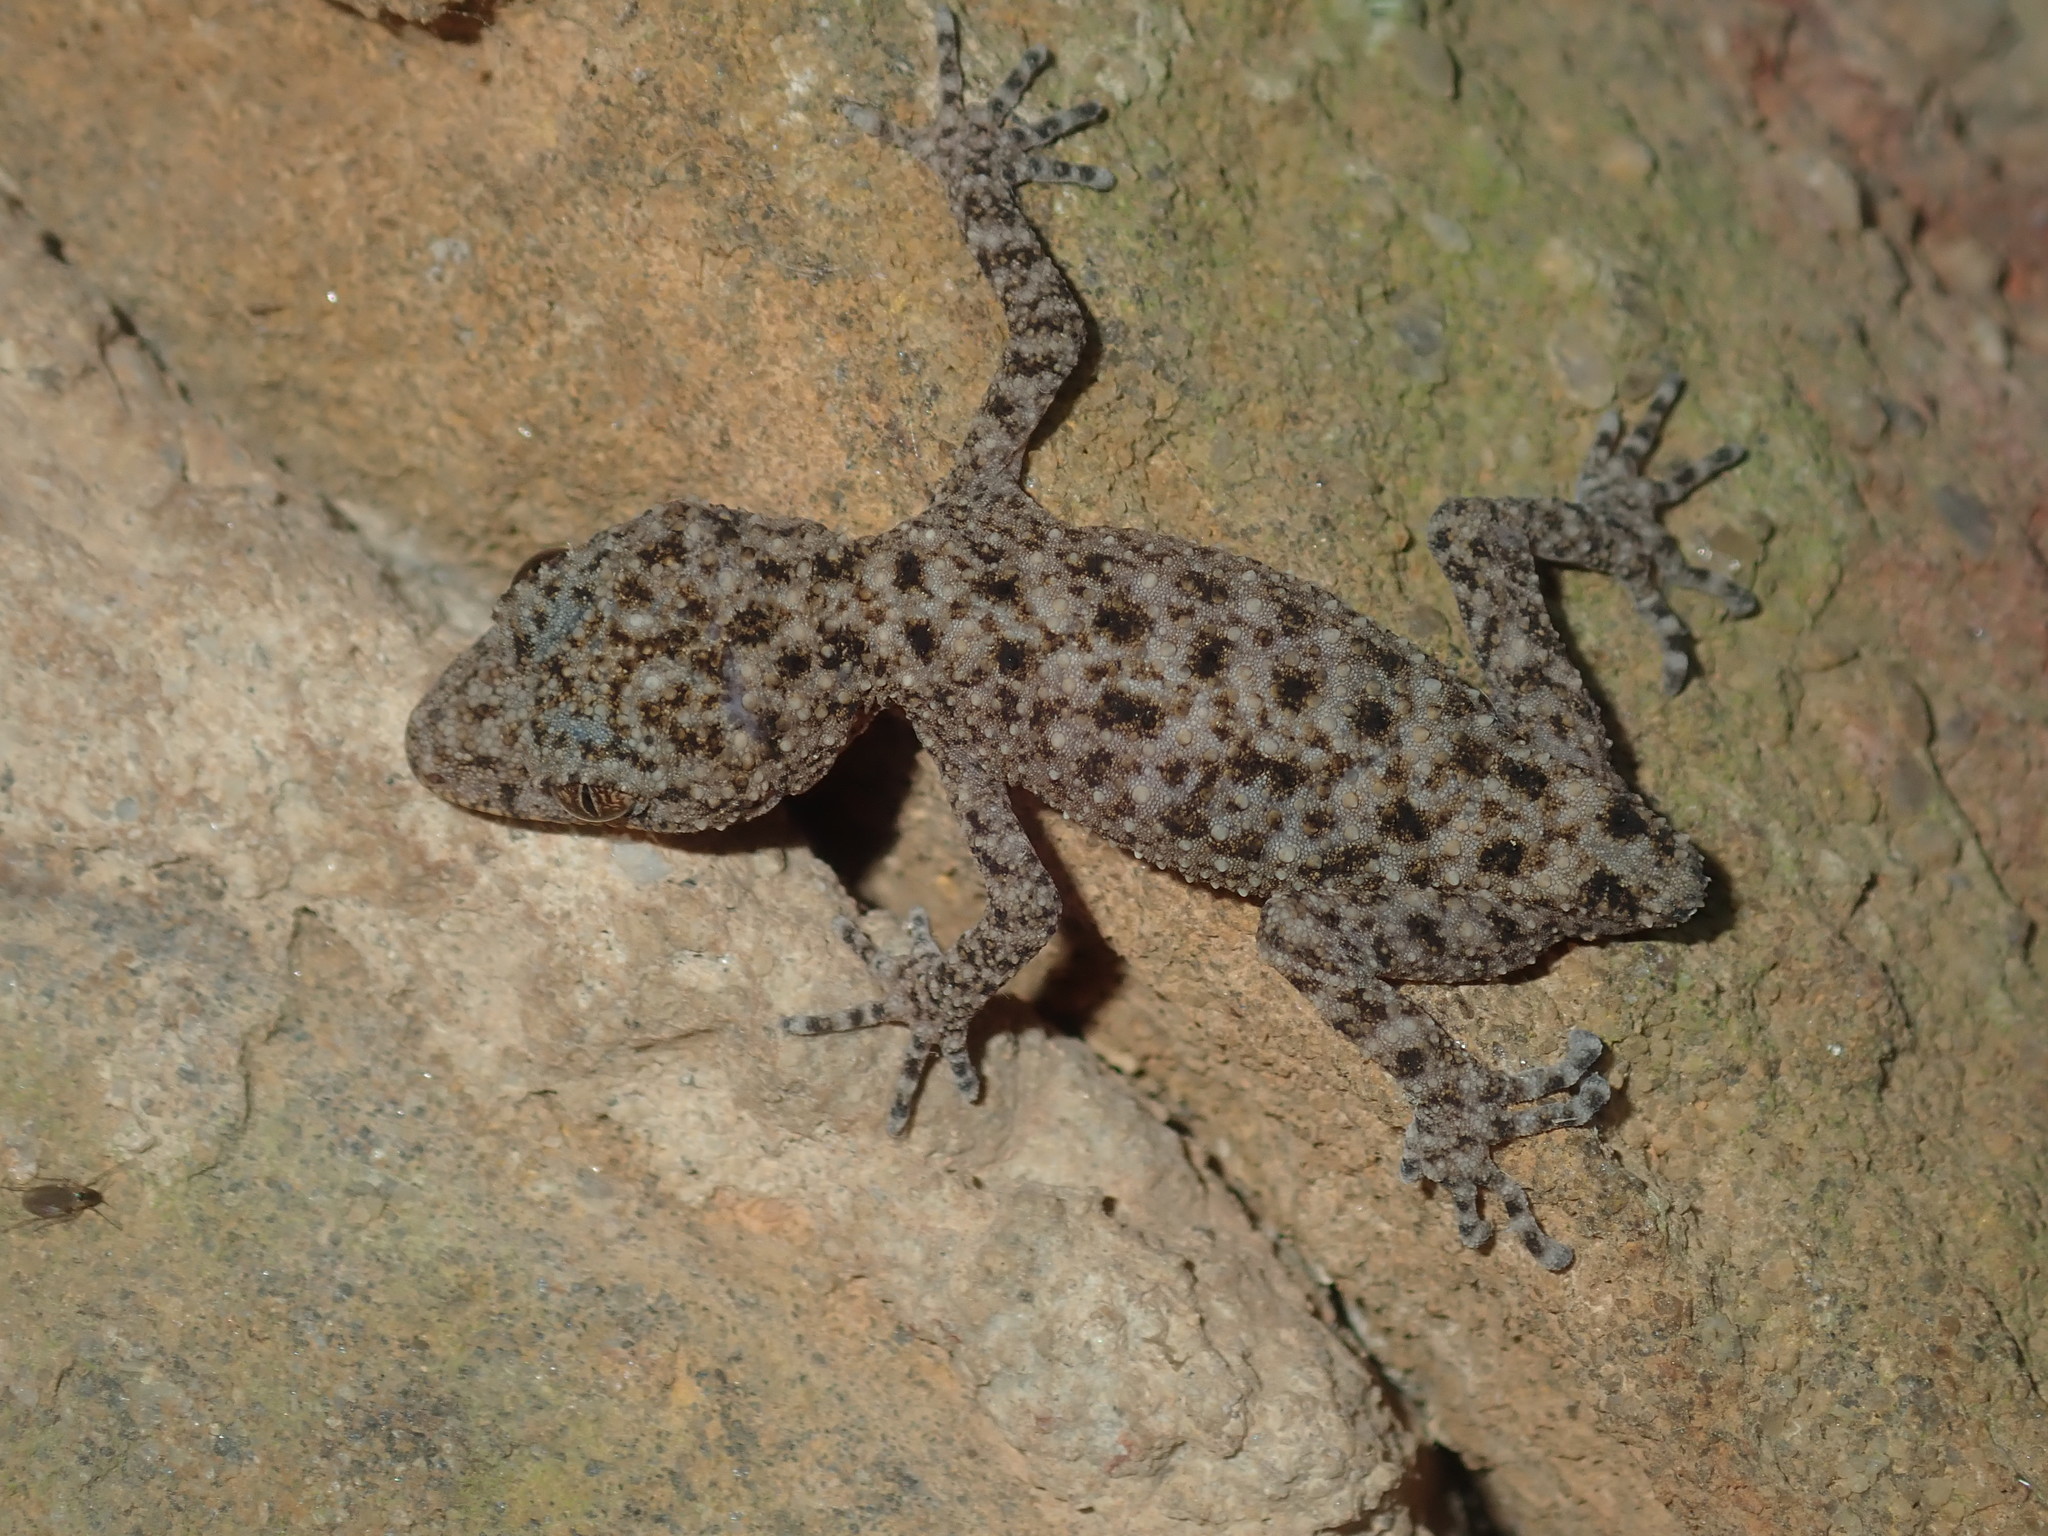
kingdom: Animalia
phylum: Chordata
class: Squamata
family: Carphodactylidae
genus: Phyllurus
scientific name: Phyllurus platurus
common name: Broad-tailed gecko
